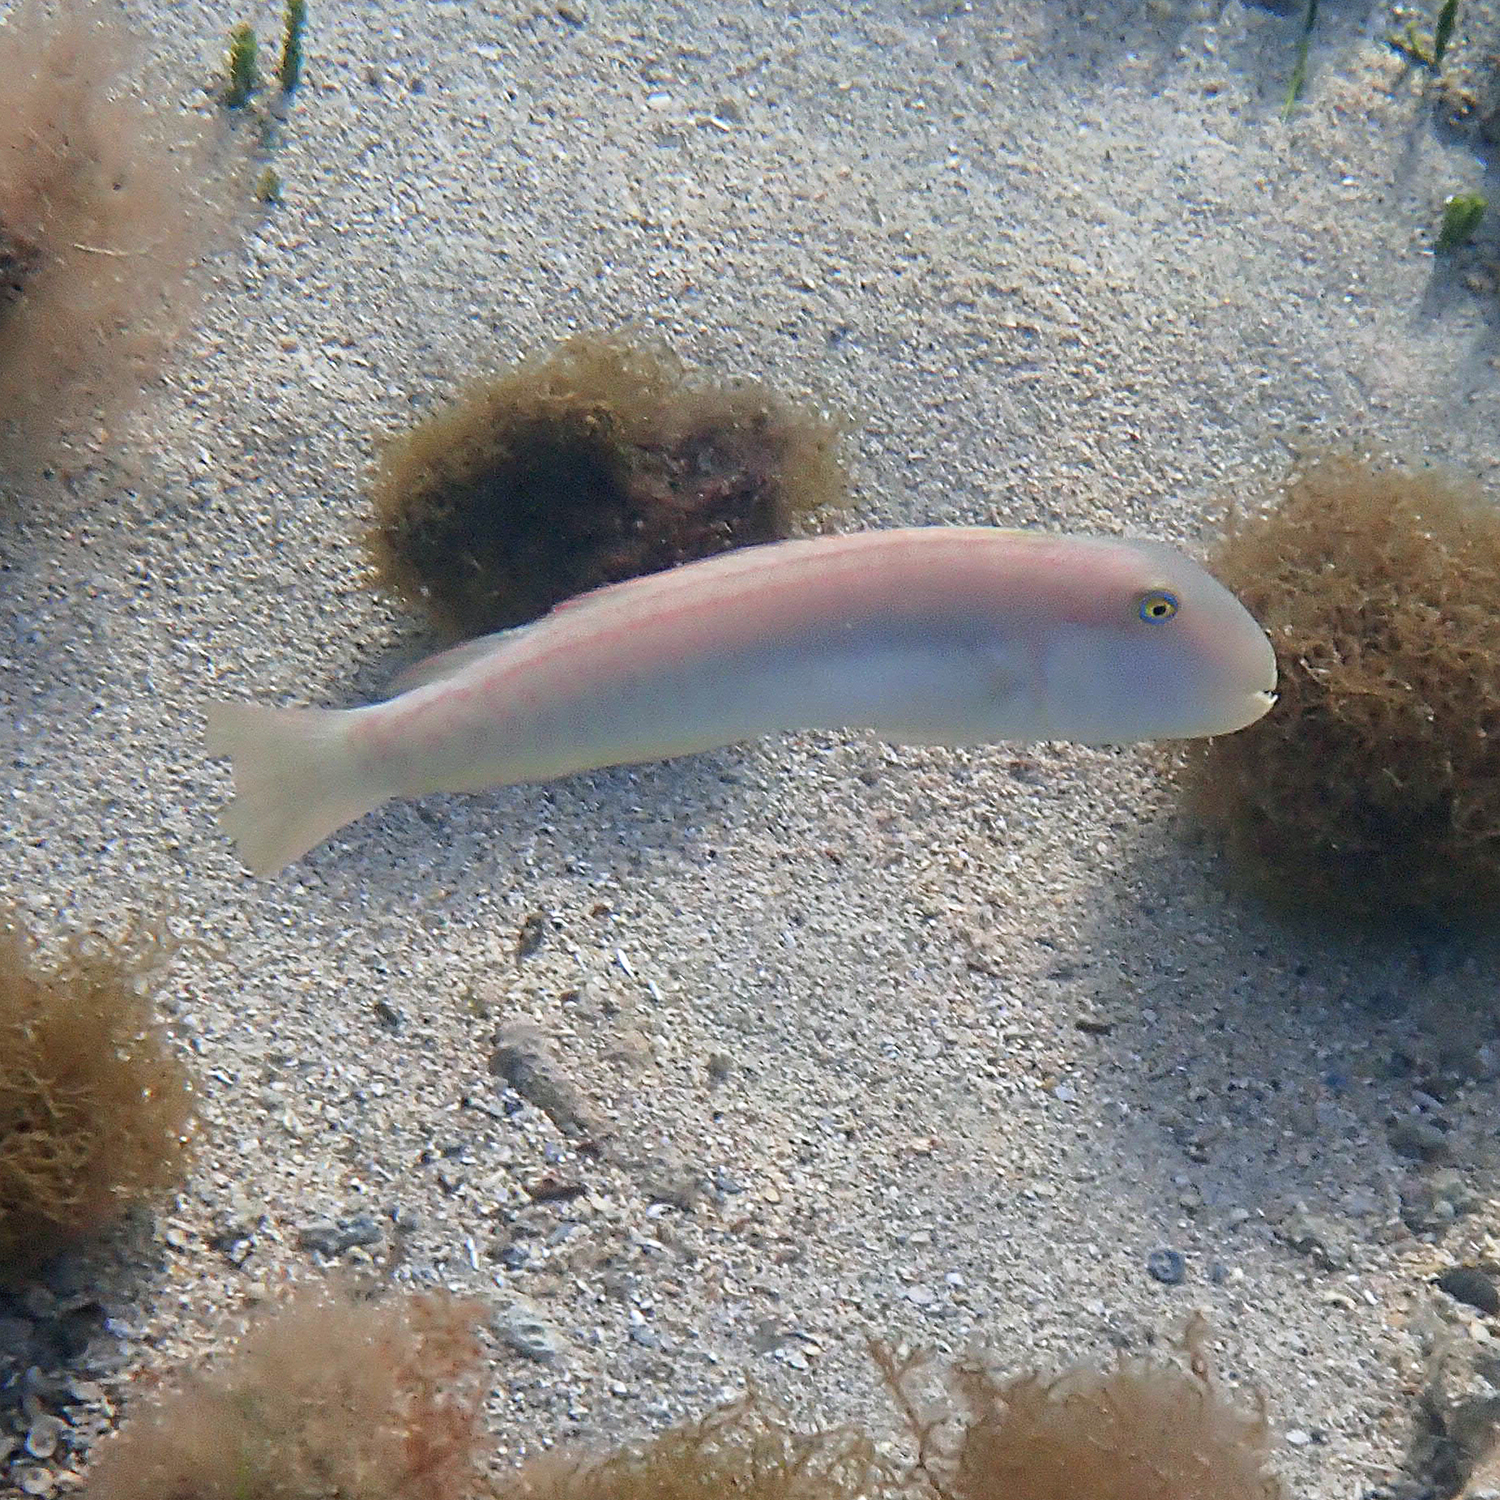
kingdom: Animalia
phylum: Chordata
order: Perciformes
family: Labridae
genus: Cymolutes
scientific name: Cymolutes praetextatus
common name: Knife razorfish
